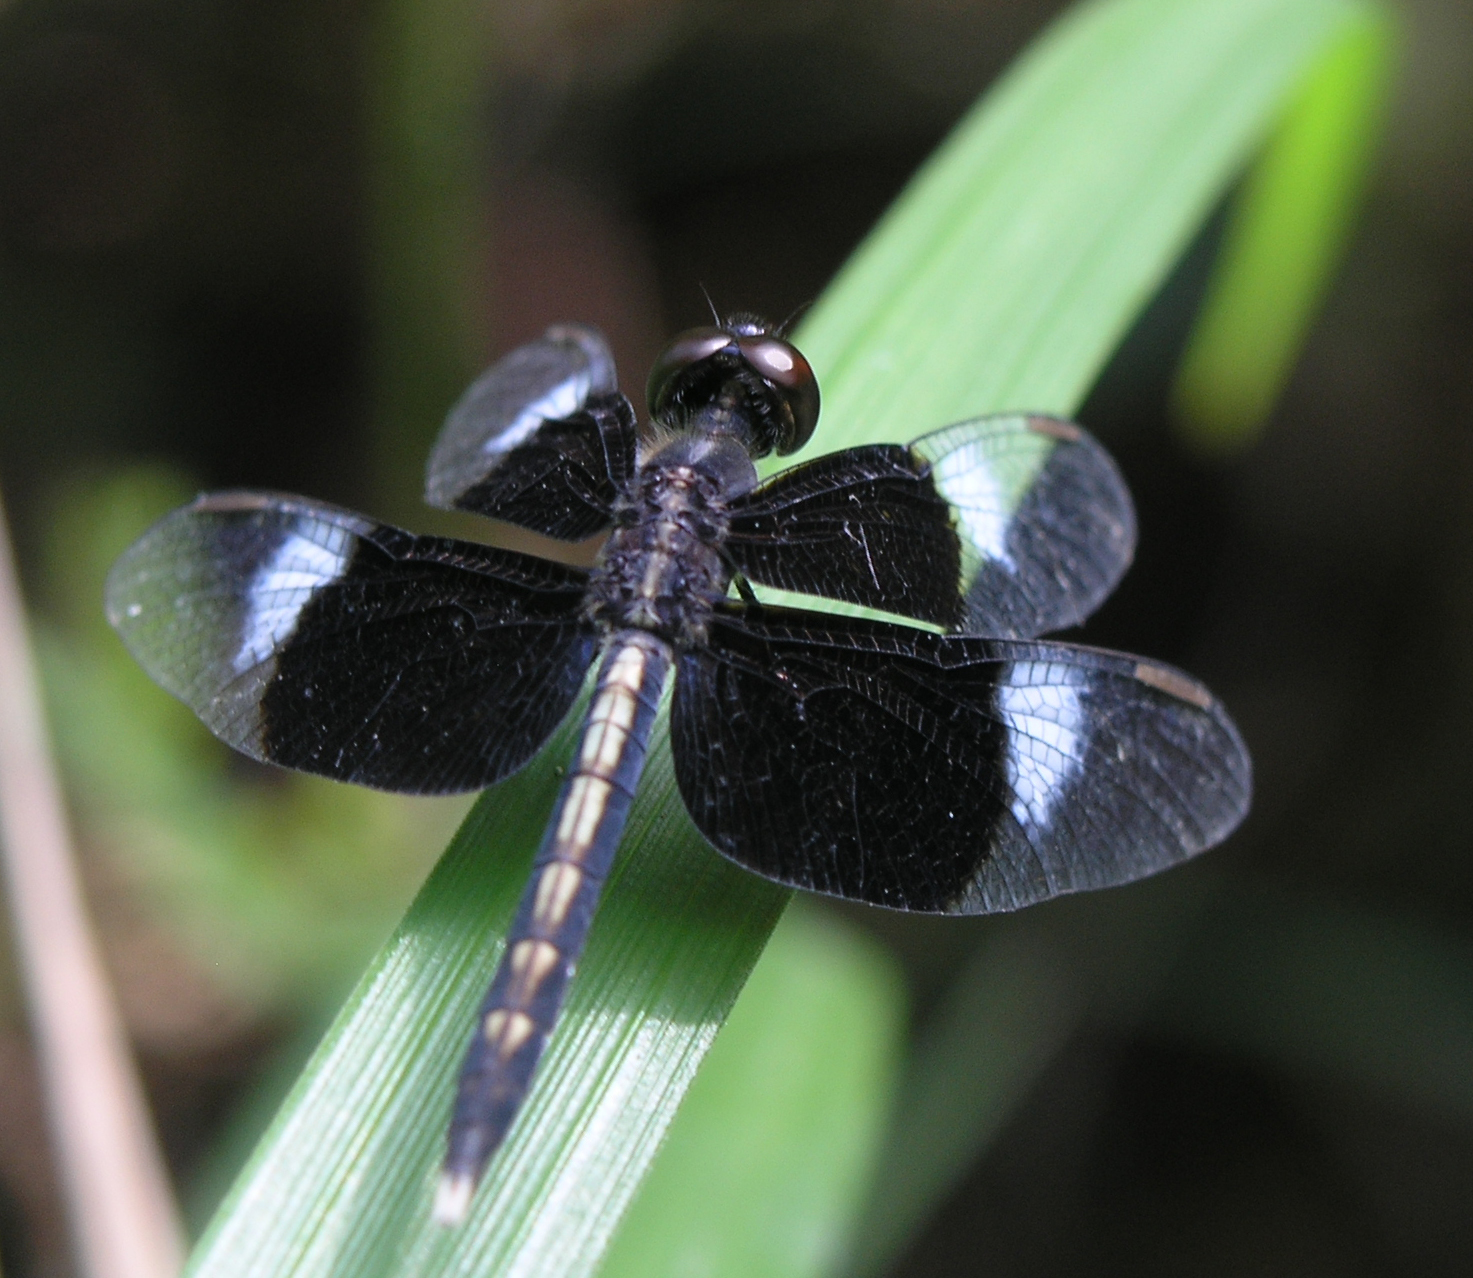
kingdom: Animalia
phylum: Arthropoda
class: Insecta
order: Odonata
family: Libellulidae
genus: Neurothemis
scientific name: Neurothemis tullia
